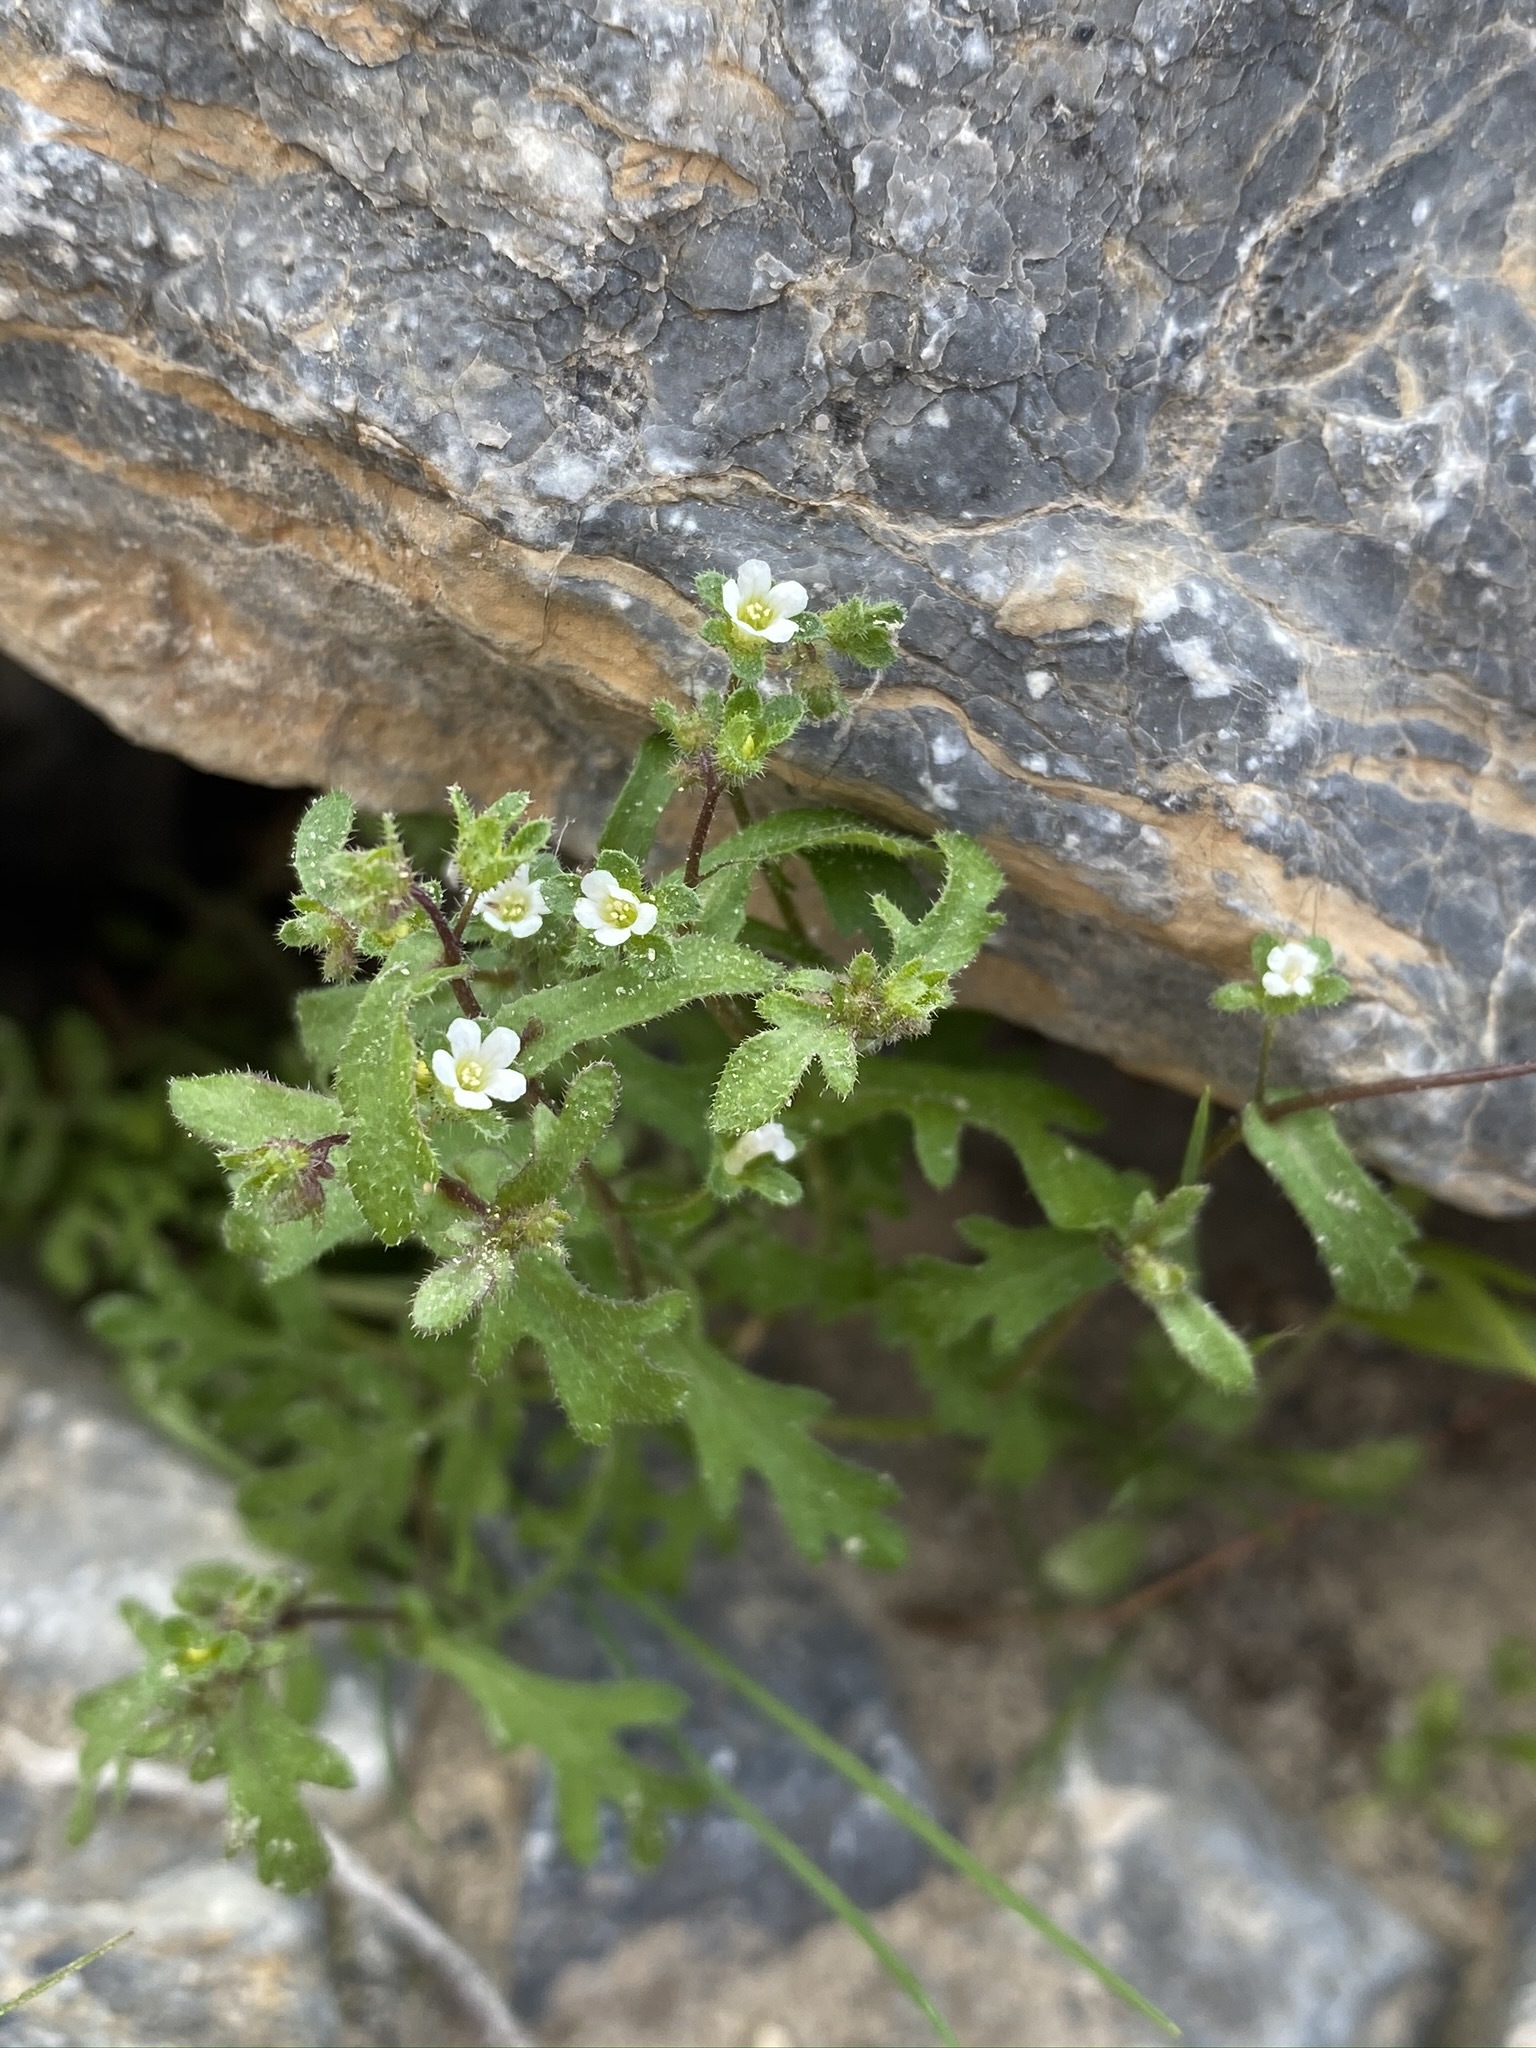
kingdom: Plantae
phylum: Tracheophyta
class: Magnoliopsida
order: Boraginales
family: Hydrophyllaceae
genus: Eucrypta
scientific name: Eucrypta micrantha
